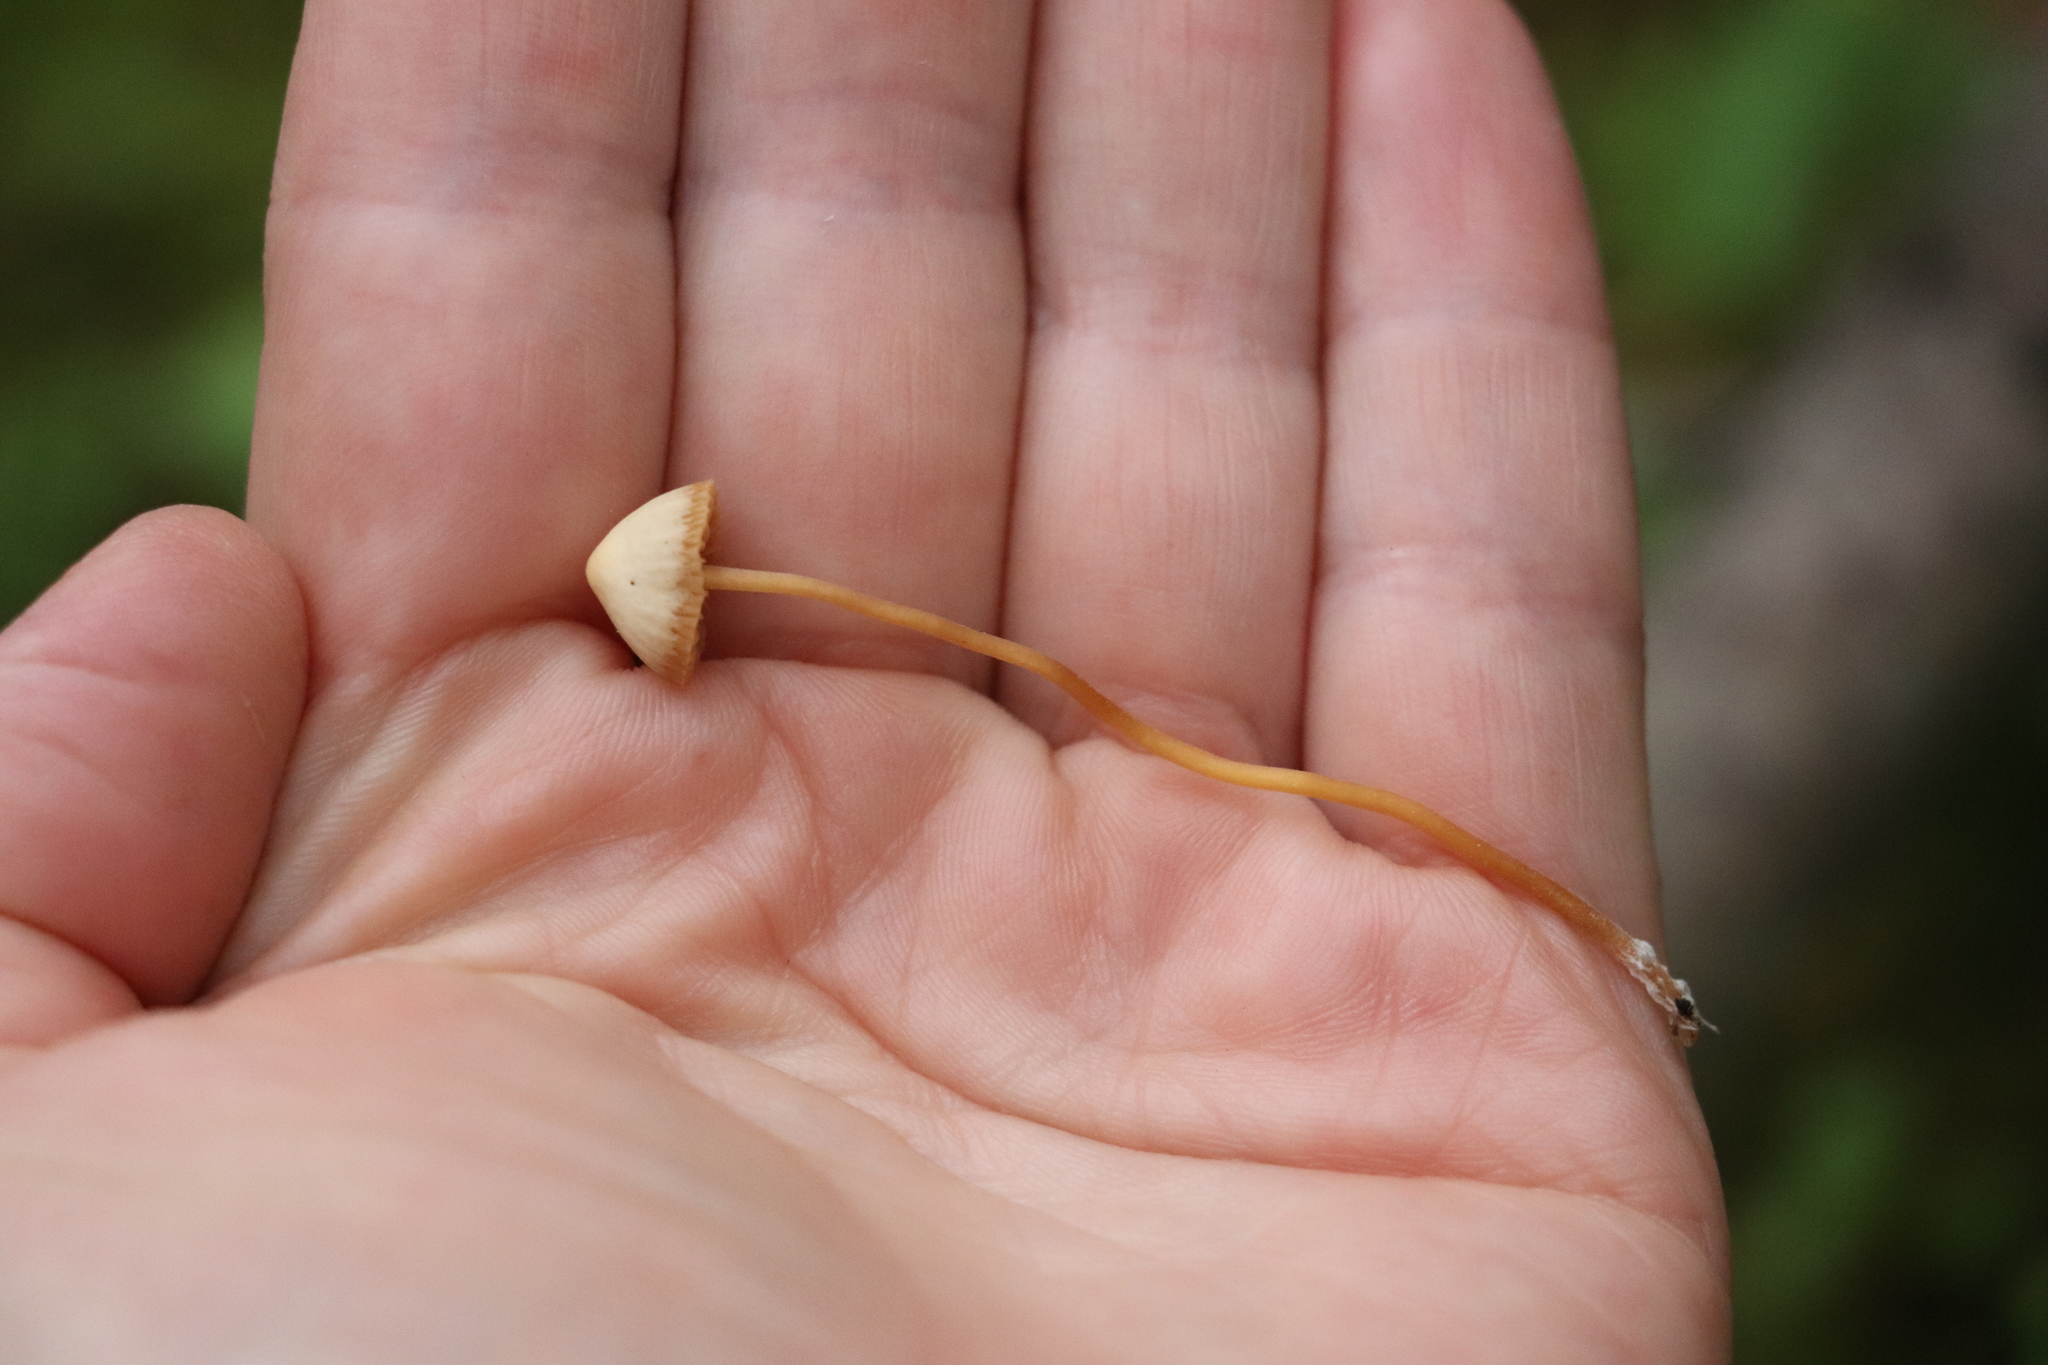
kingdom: Fungi
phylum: Basidiomycota
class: Agaricomycetes
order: Agaricales
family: Hymenogastraceae
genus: Galerina
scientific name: Galerina vittiformis
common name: Hairy leg bell
